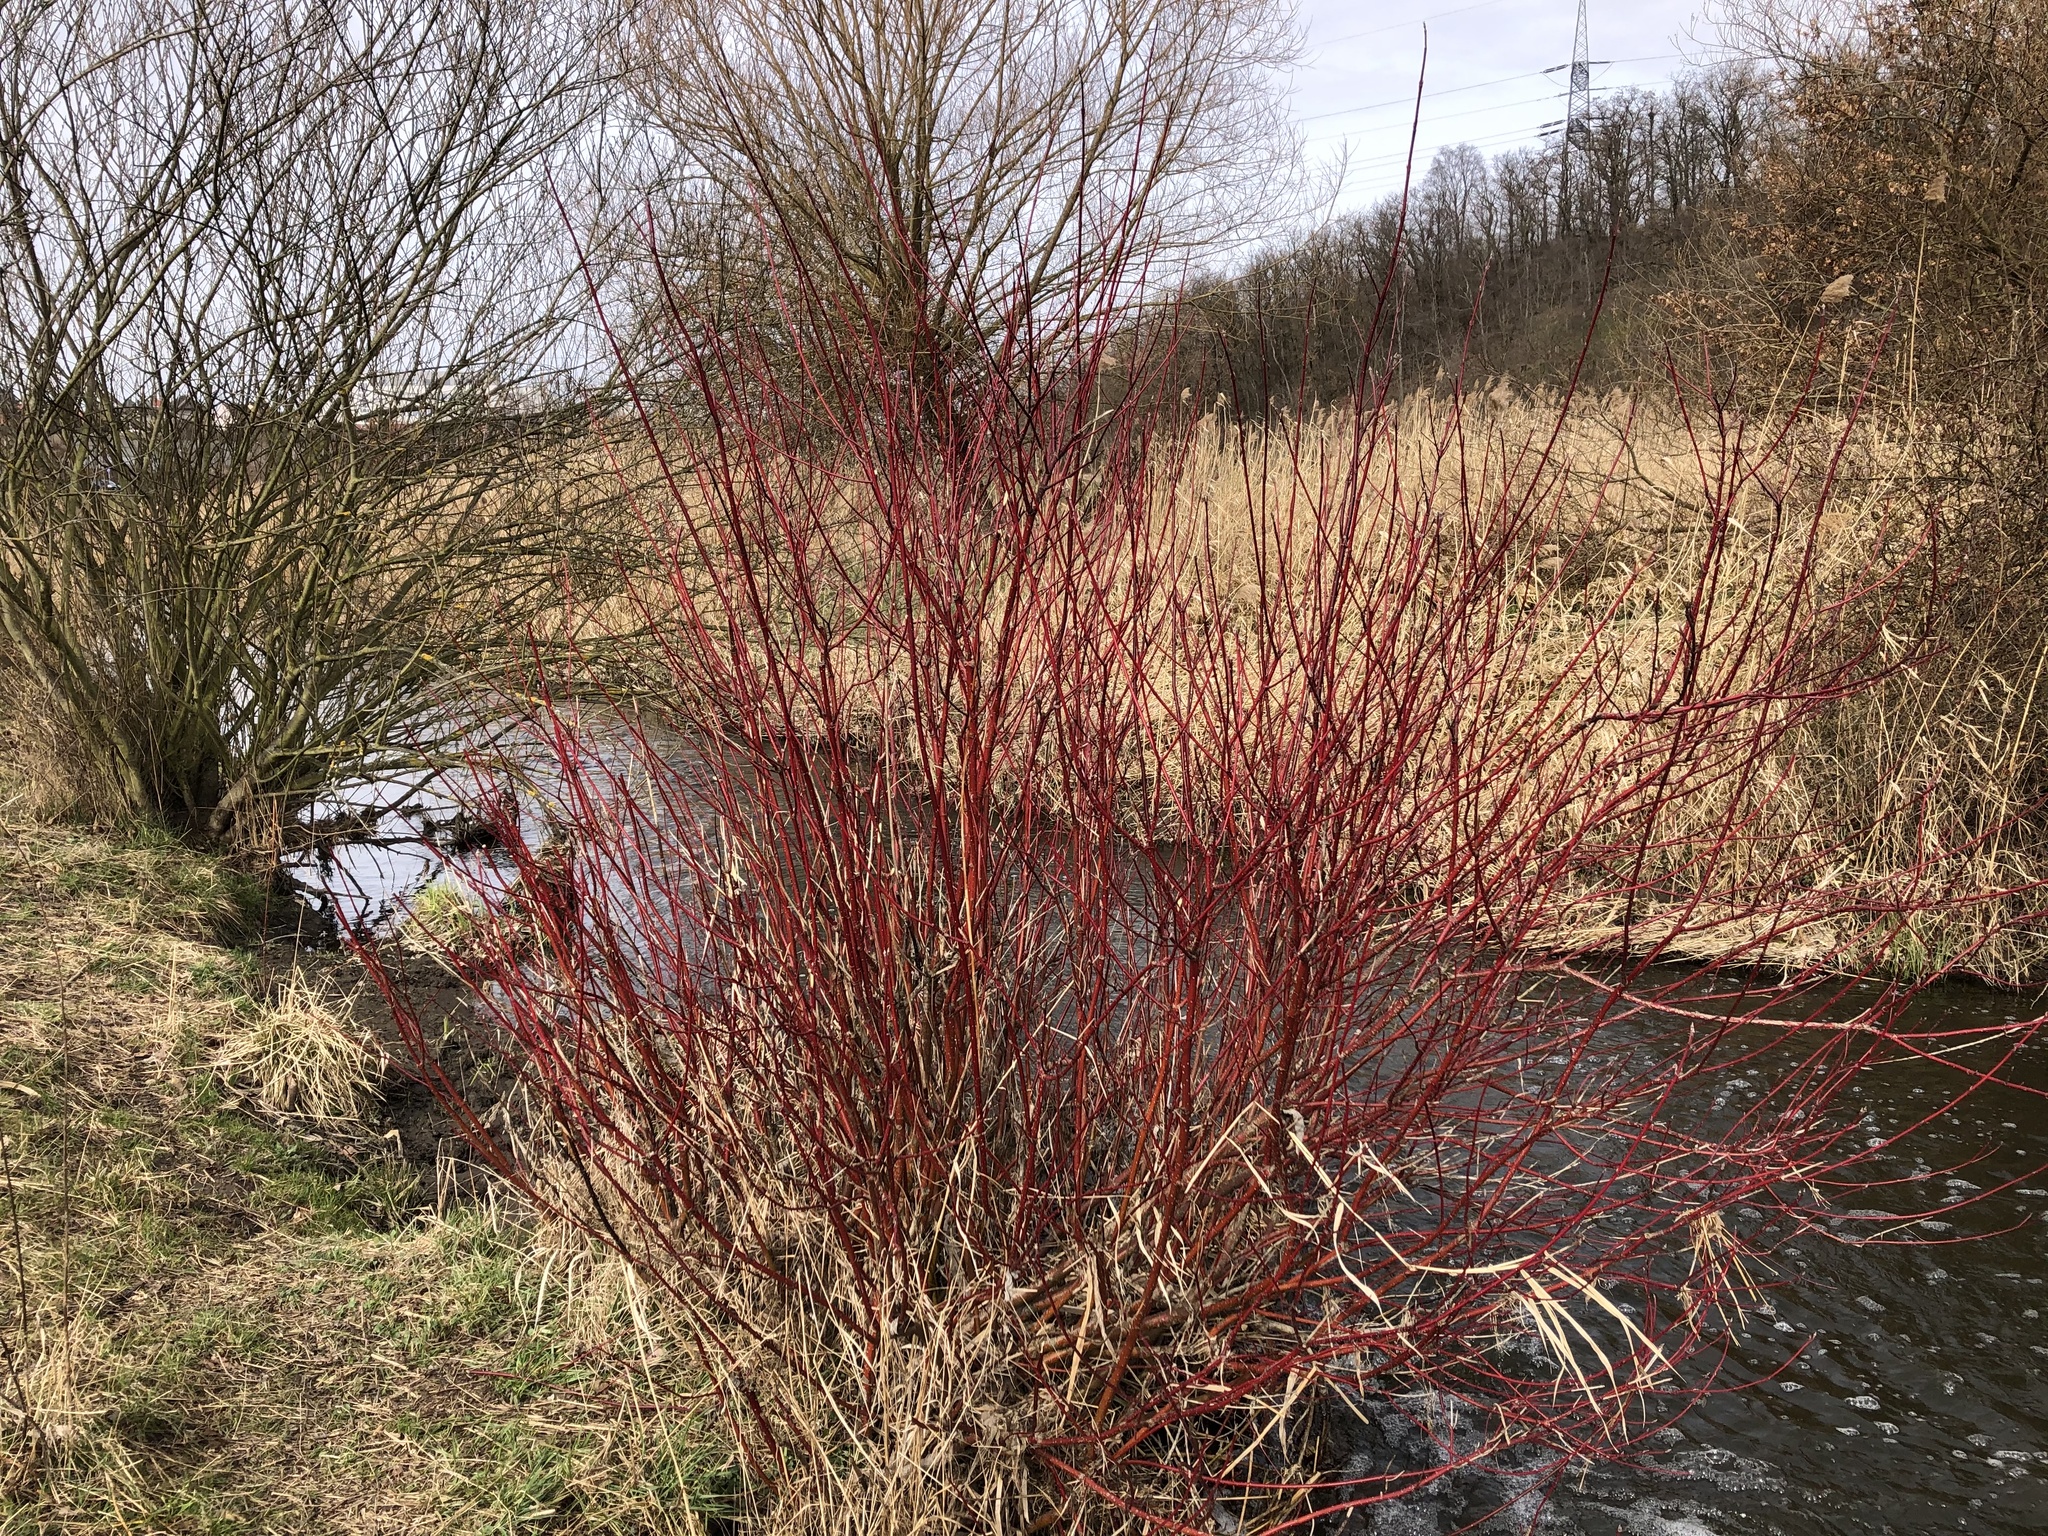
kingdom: Plantae
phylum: Tracheophyta
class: Magnoliopsida
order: Cornales
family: Cornaceae
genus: Cornus
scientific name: Cornus alba
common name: White dogwood
